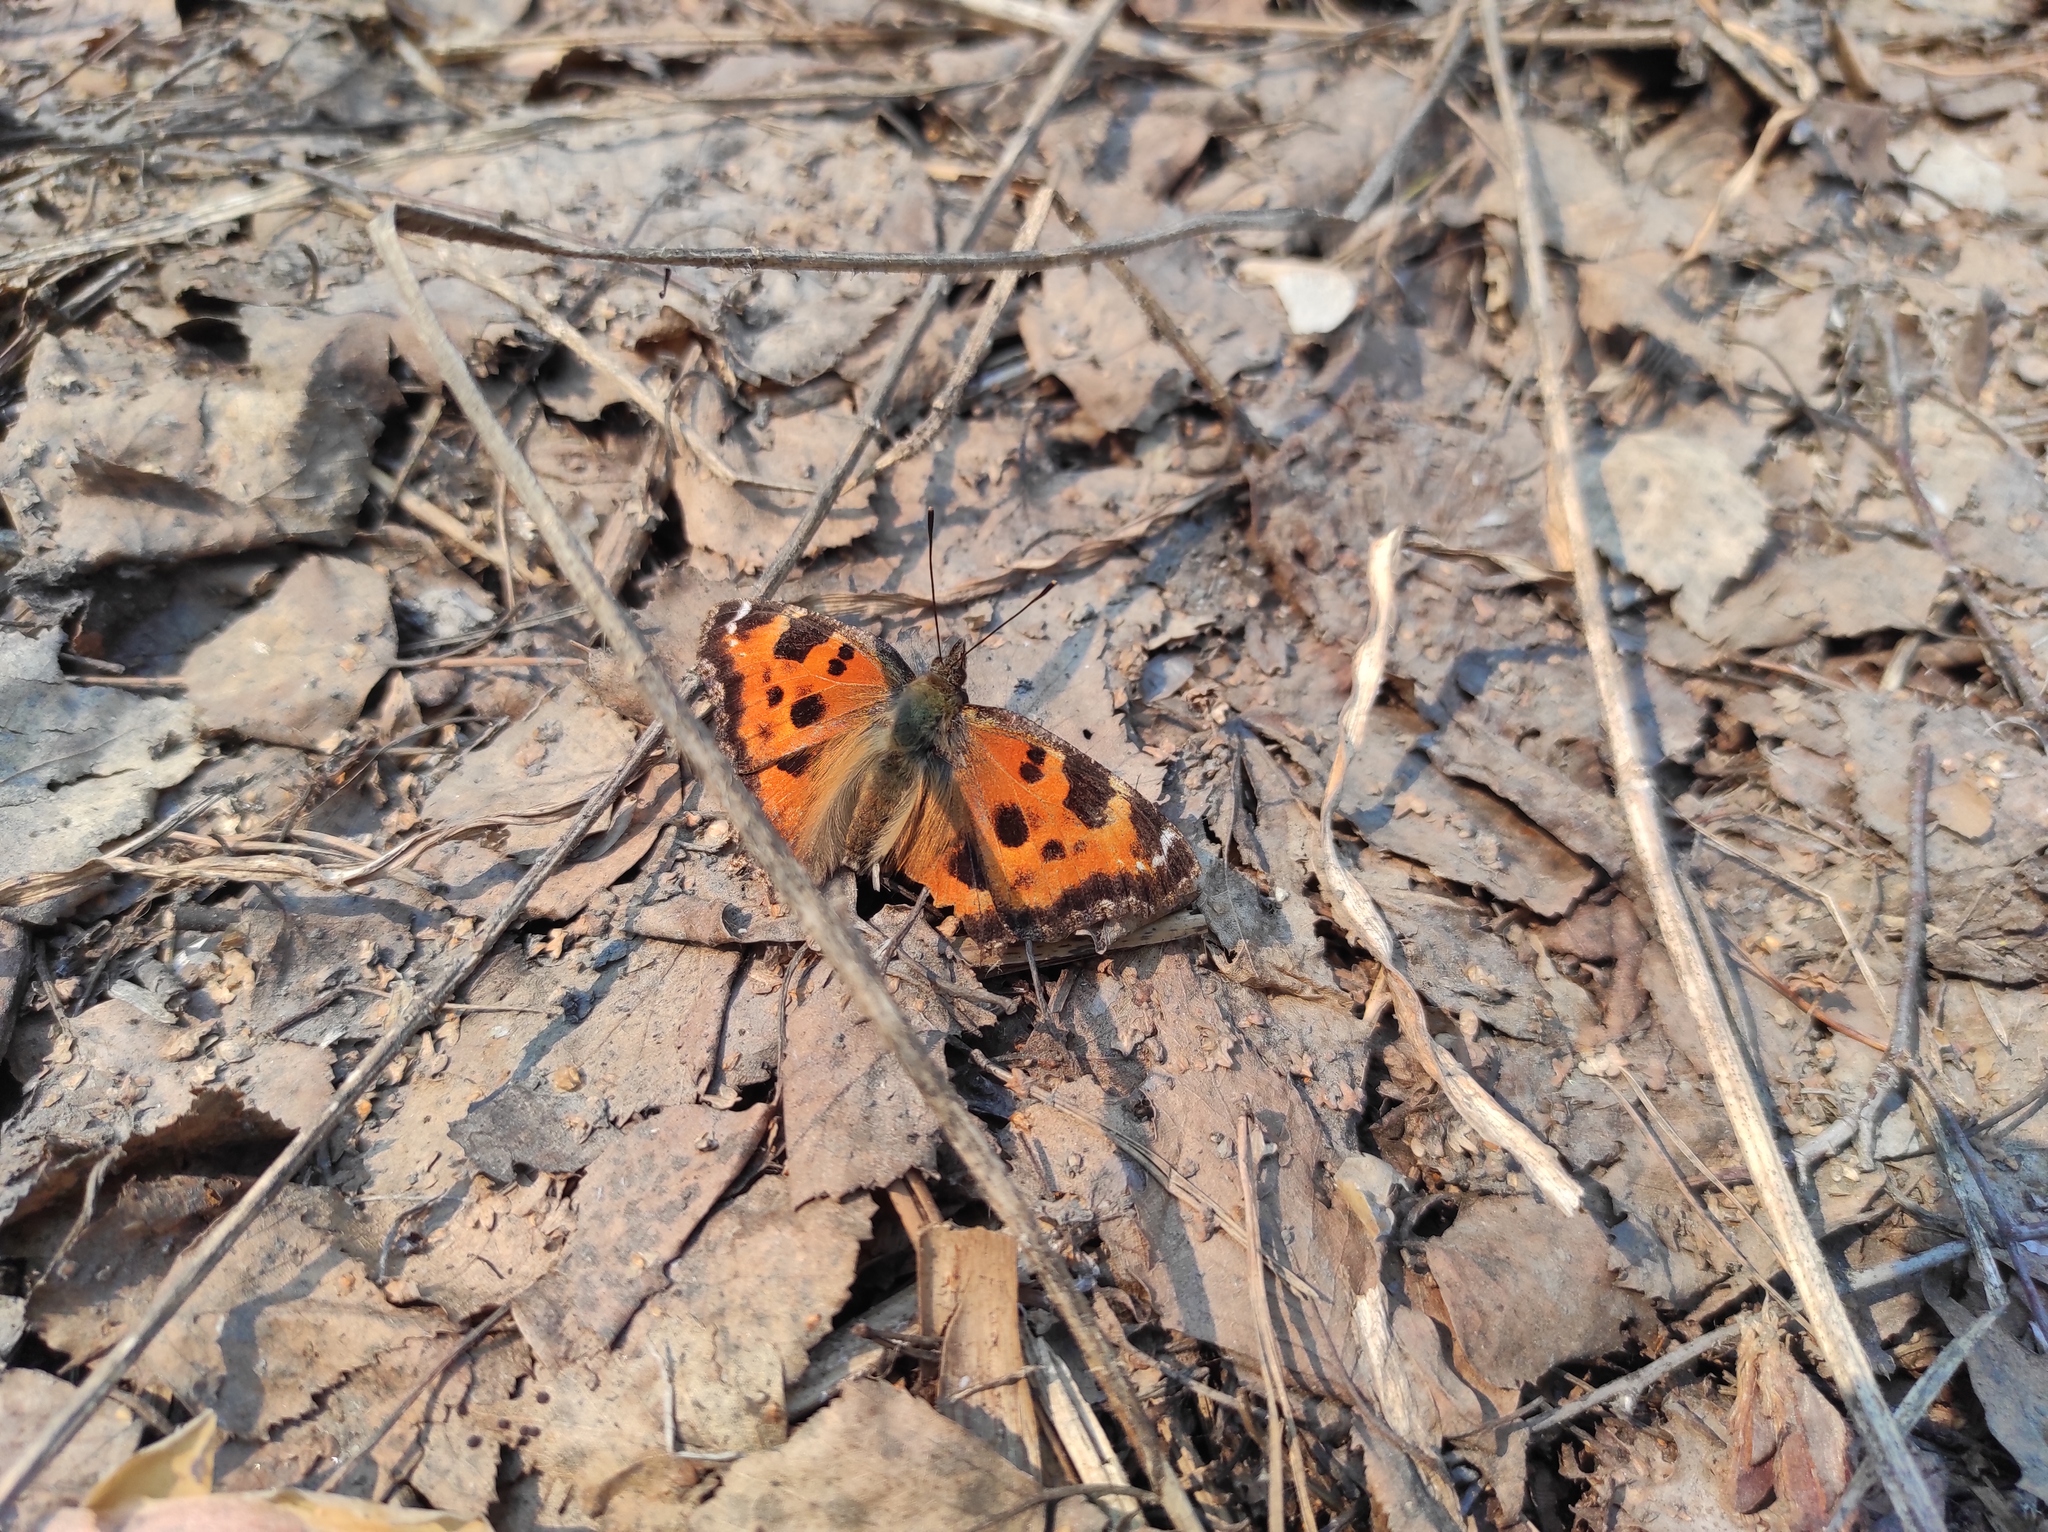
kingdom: Animalia
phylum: Arthropoda
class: Insecta
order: Lepidoptera
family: Nymphalidae
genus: Nymphalis
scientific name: Nymphalis xanthomelas
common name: Scarce tortoiseshell
